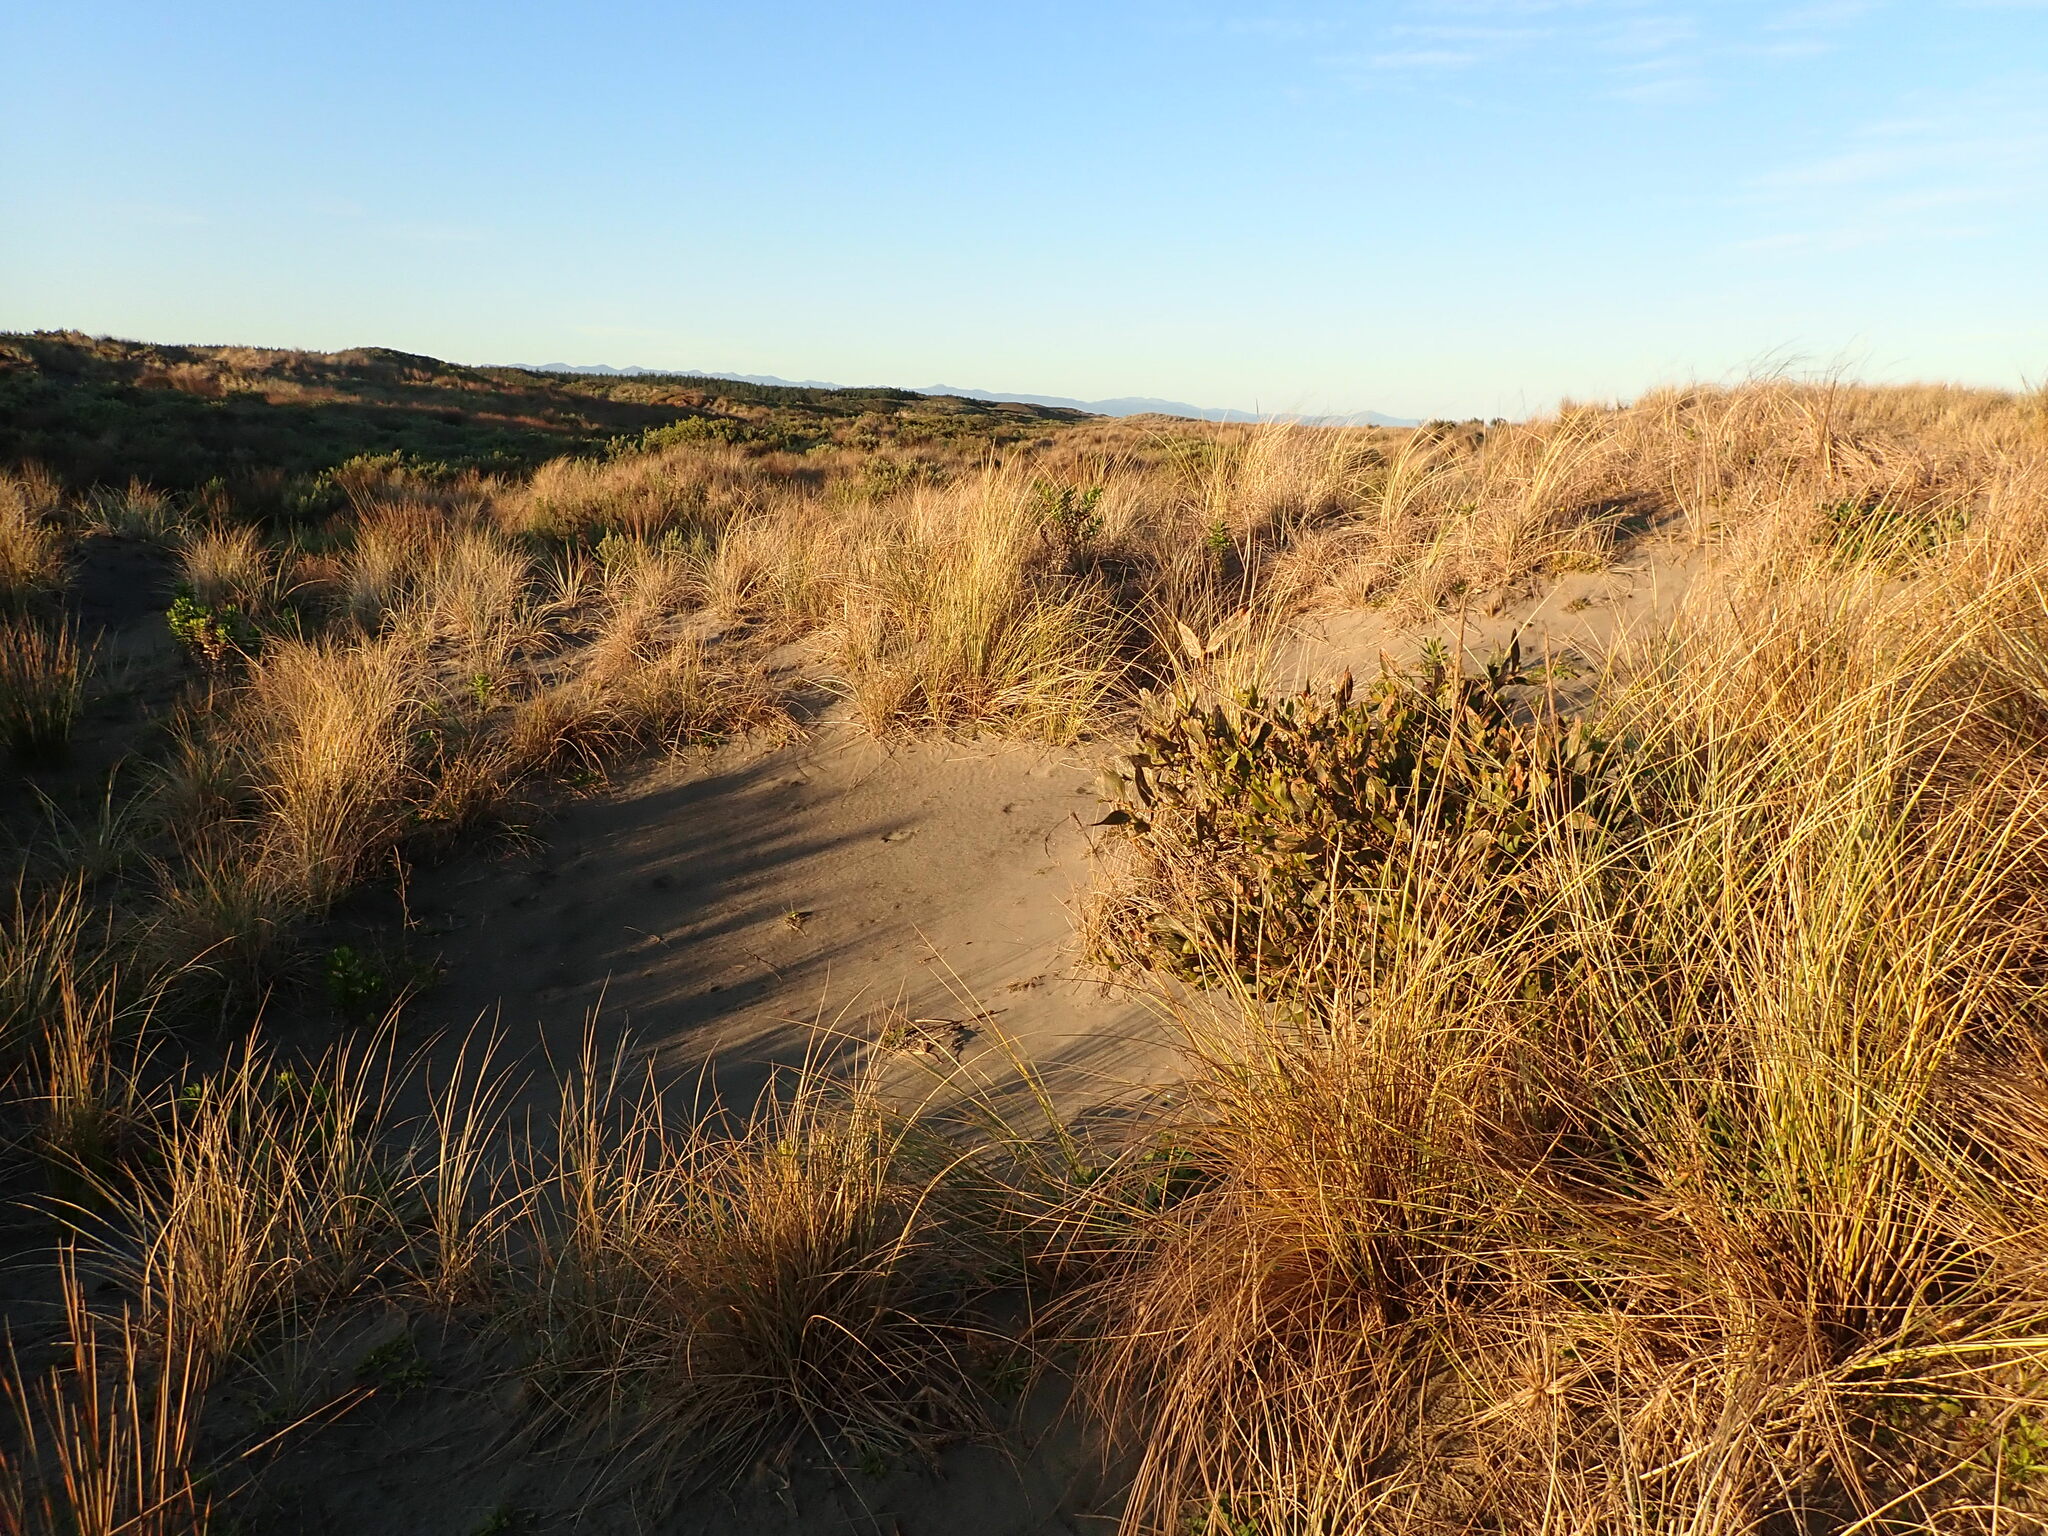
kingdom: Plantae
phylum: Tracheophyta
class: Magnoliopsida
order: Fabales
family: Fabaceae
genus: Acacia
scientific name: Acacia longifolia
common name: Sydney golden wattle
